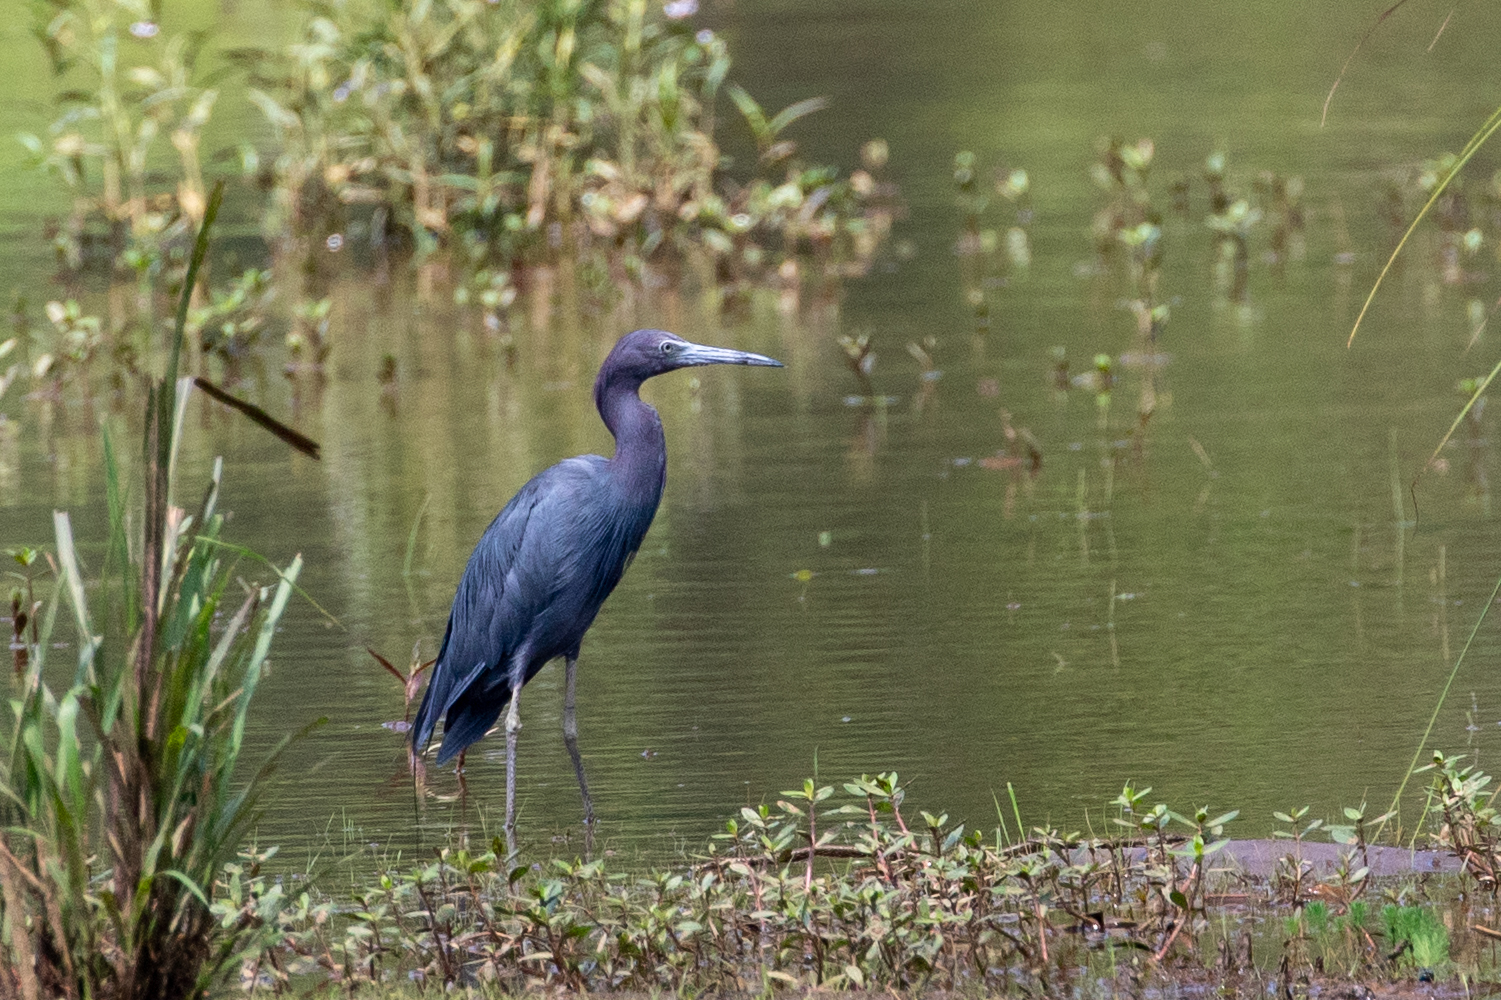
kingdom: Animalia
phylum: Chordata
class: Aves
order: Pelecaniformes
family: Ardeidae
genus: Egretta
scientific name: Egretta caerulea
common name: Little blue heron
